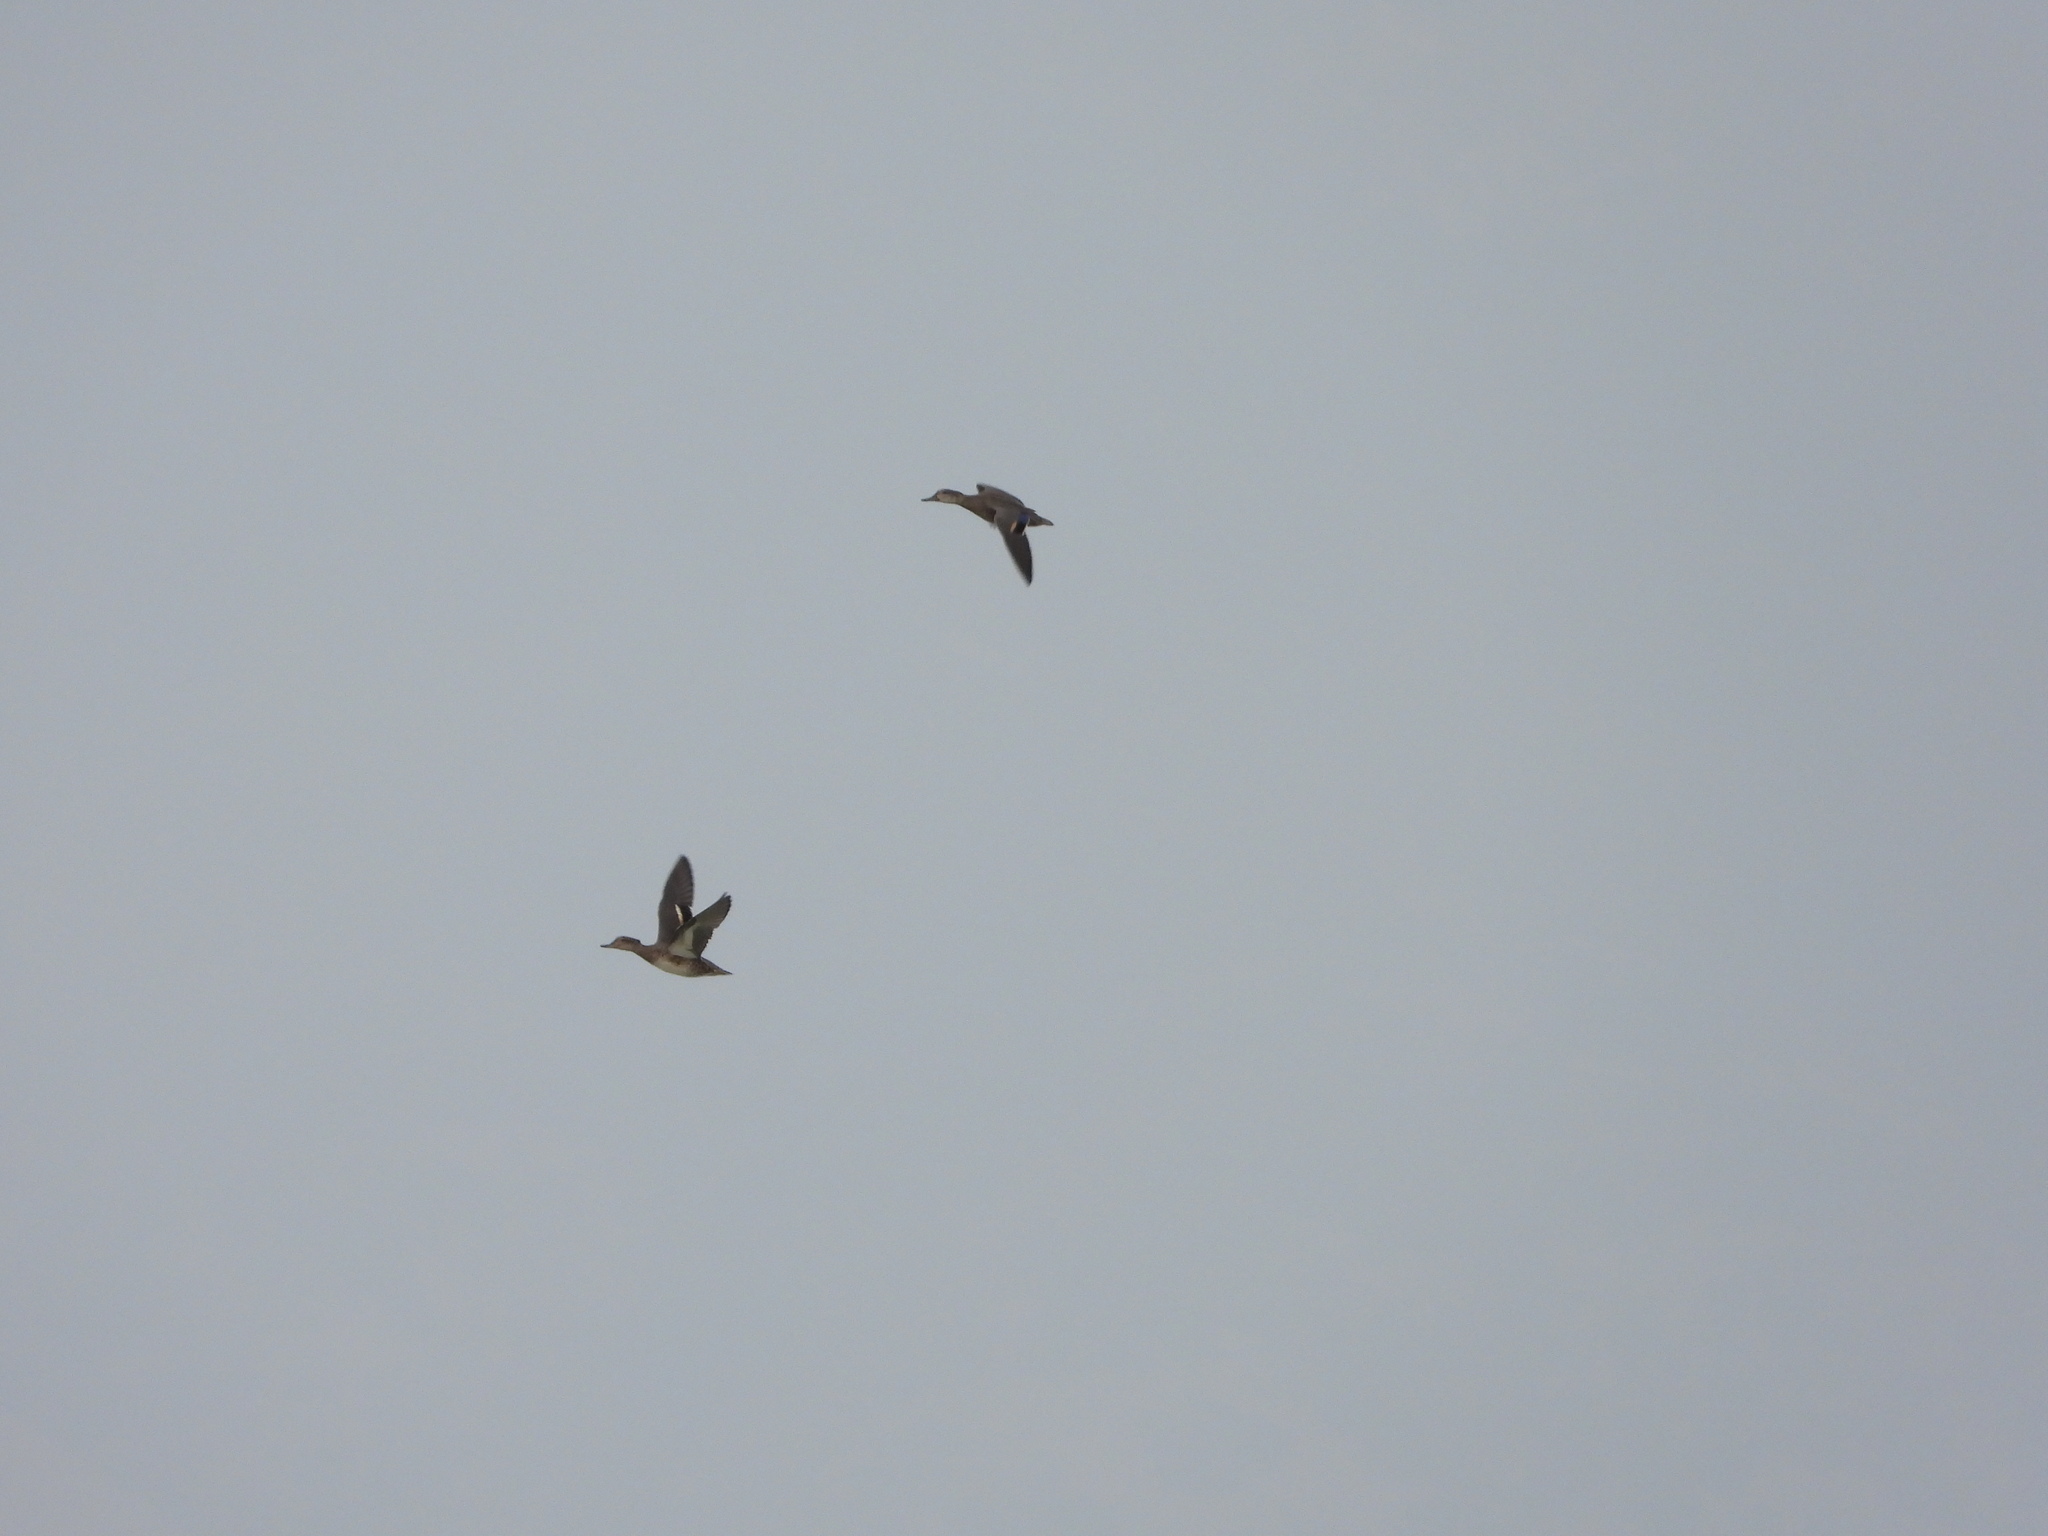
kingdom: Animalia
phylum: Chordata
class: Aves
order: Anseriformes
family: Anatidae
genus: Anas
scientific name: Anas crecca
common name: Eurasian teal
